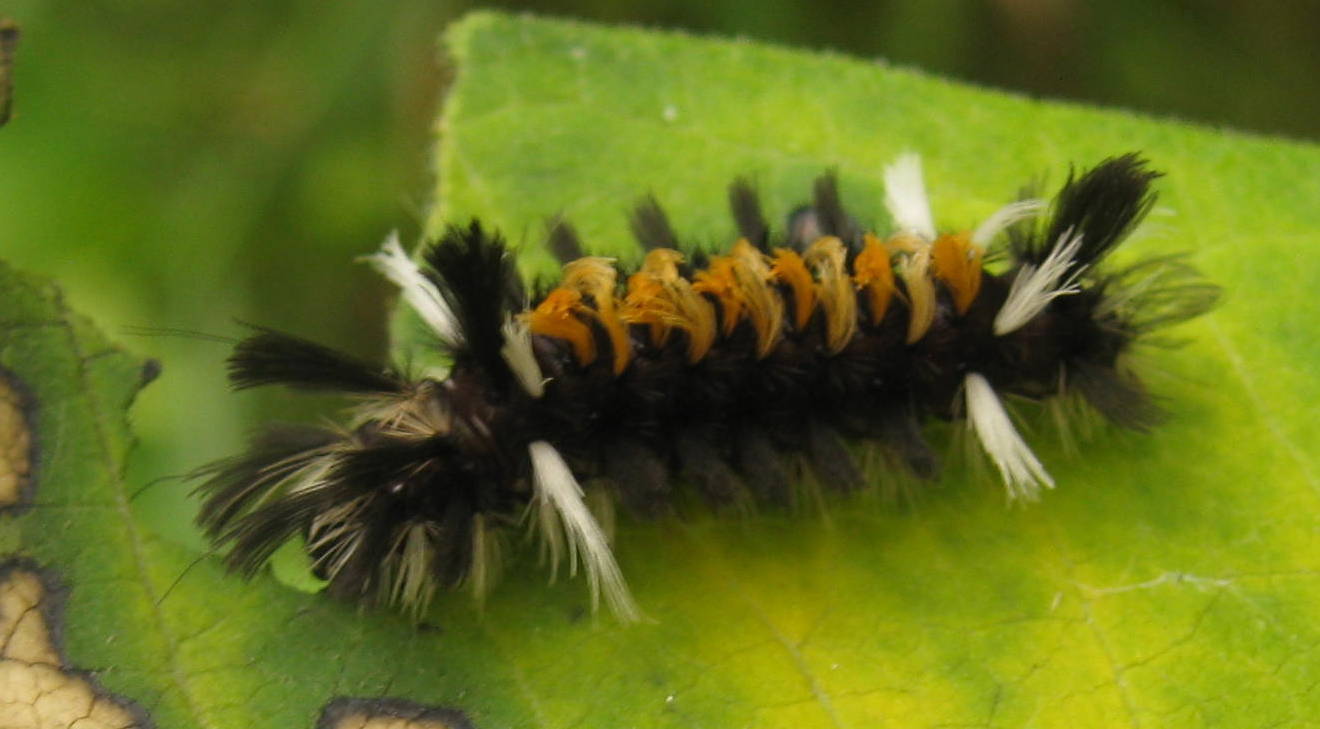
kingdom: Animalia
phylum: Arthropoda
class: Insecta
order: Lepidoptera
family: Erebidae
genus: Euchaetes
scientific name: Euchaetes egle
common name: Milkweed tussock moth
